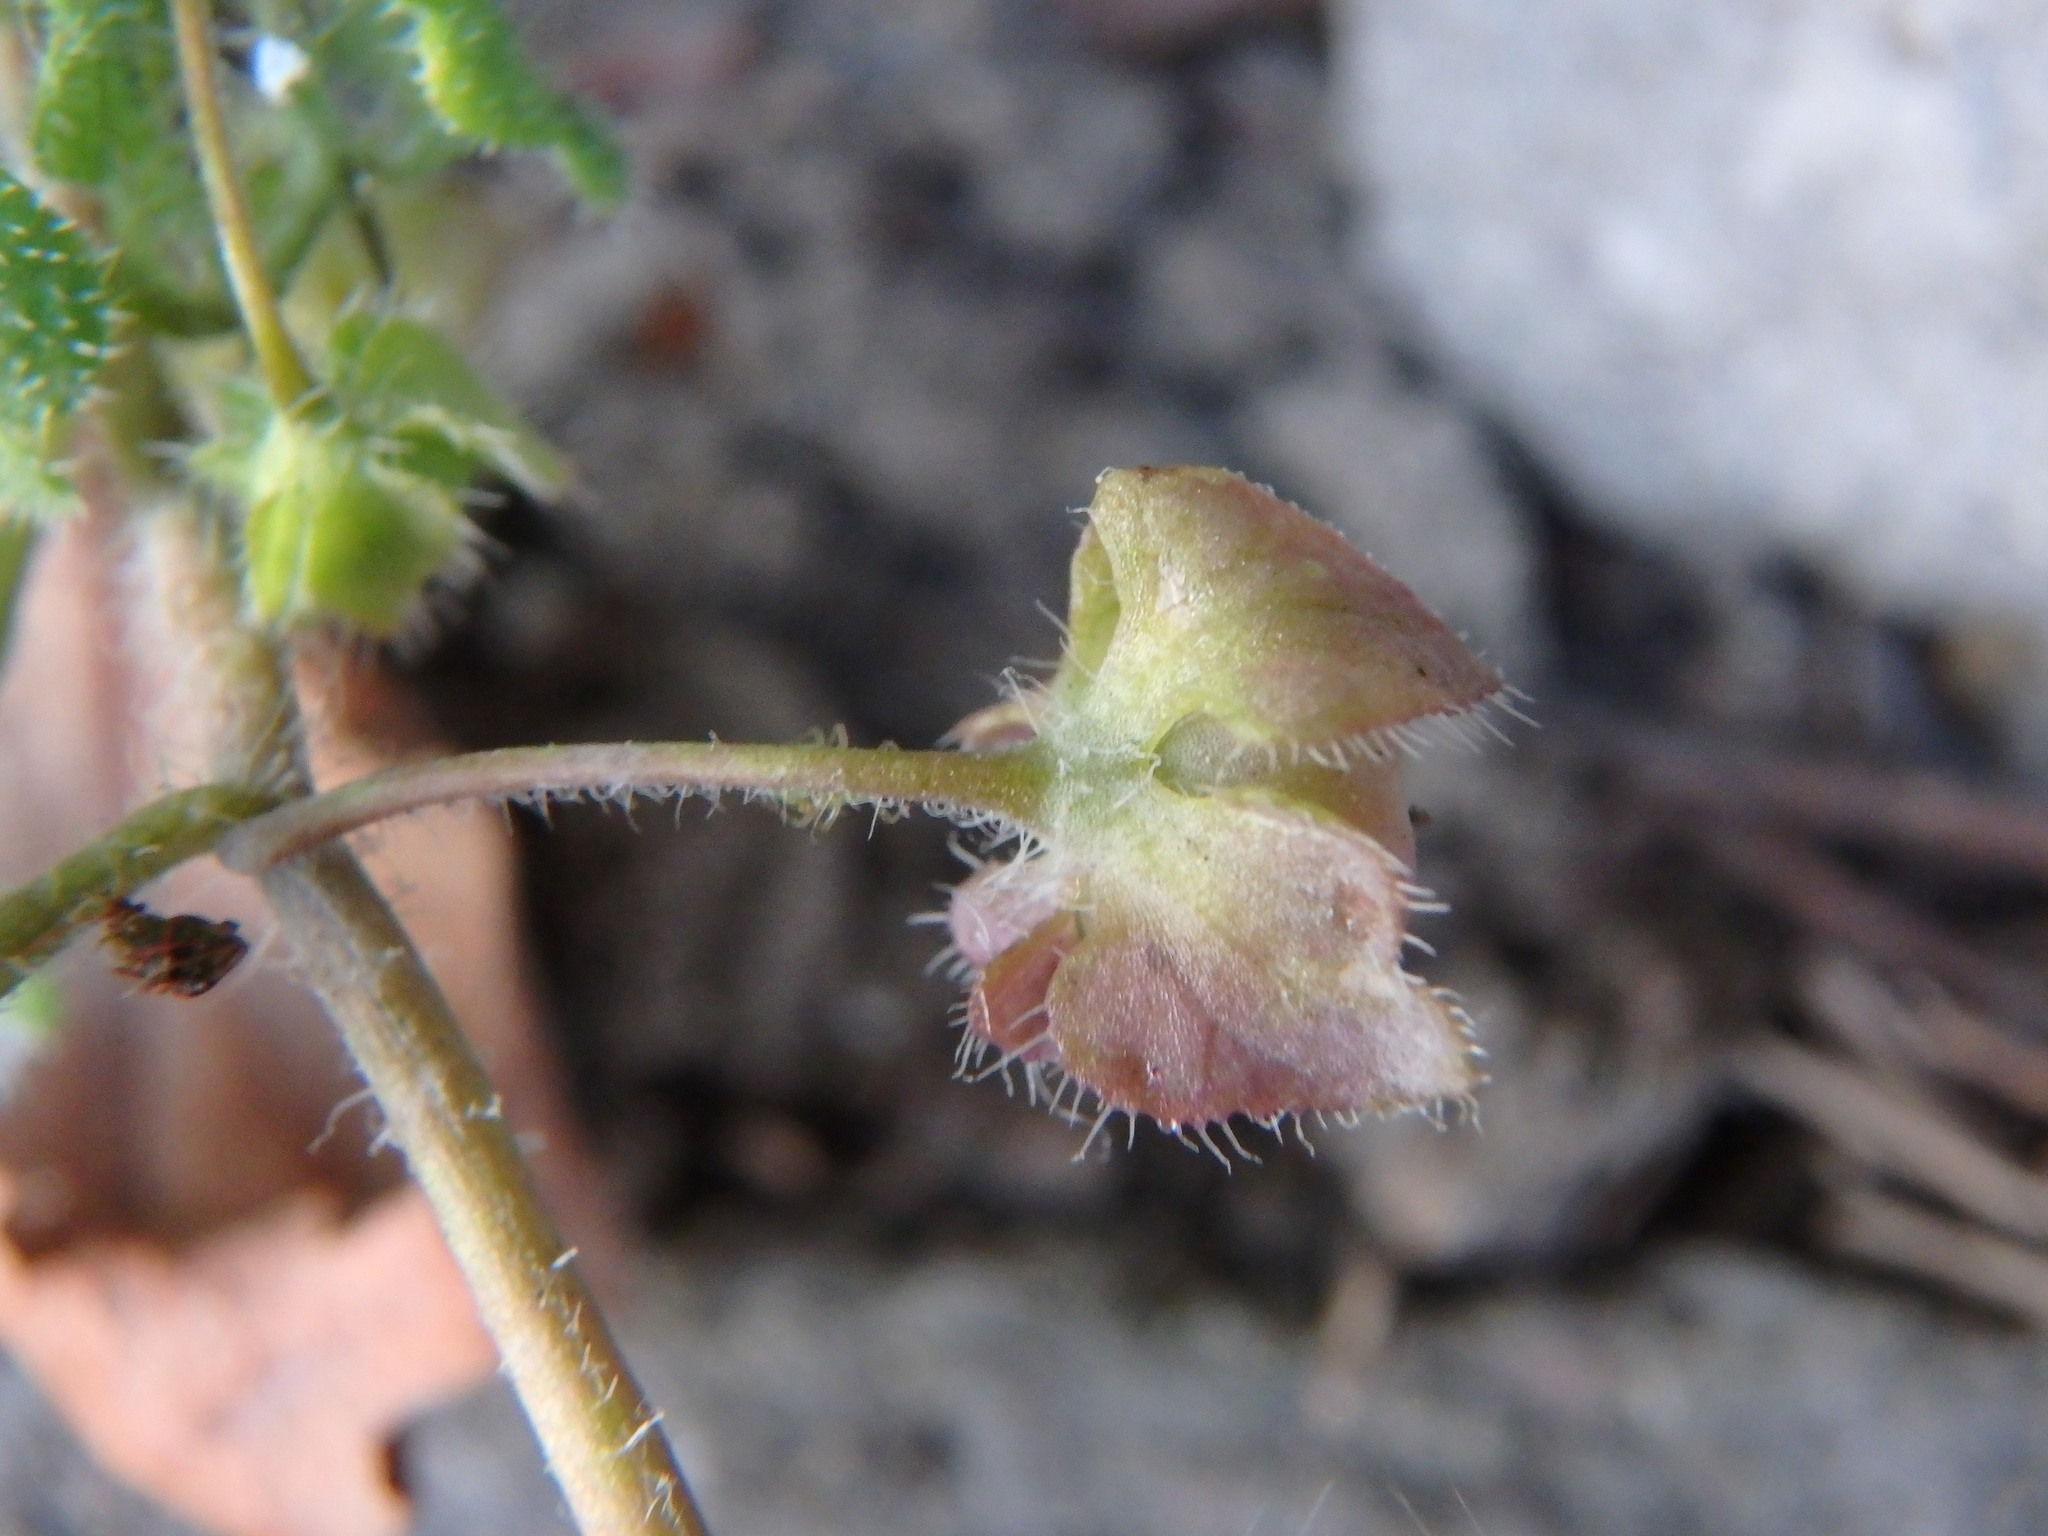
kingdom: Plantae
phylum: Tracheophyta
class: Magnoliopsida
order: Lamiales
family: Plantaginaceae
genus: Veronica
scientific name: Veronica hederifolia
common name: Ivy-leaved speedwell
